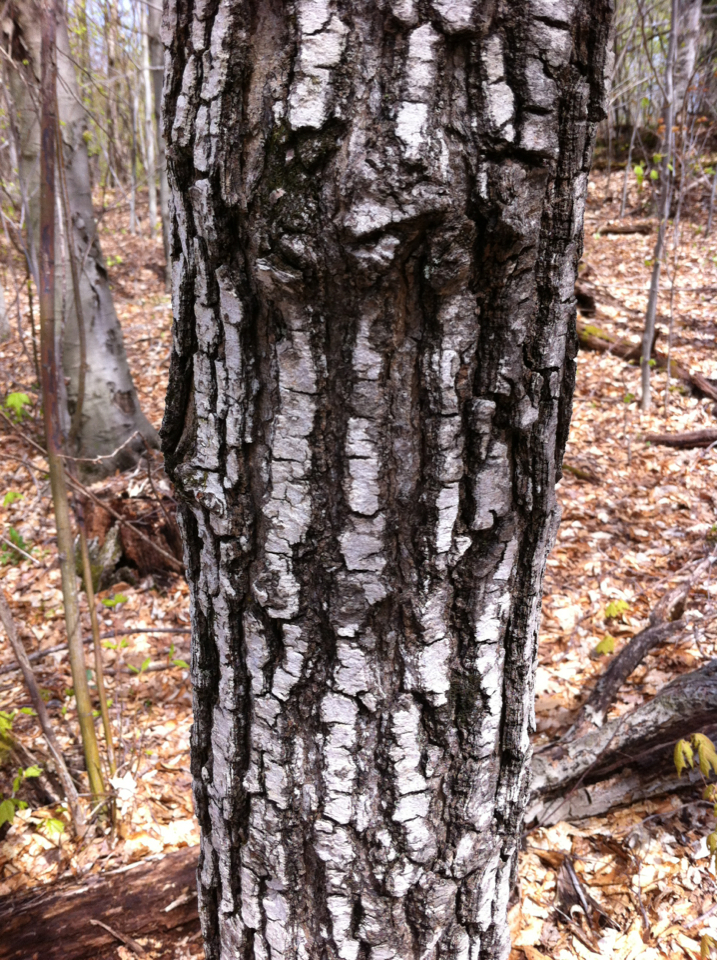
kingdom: Plantae
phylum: Tracheophyta
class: Magnoliopsida
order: Fagales
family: Juglandaceae
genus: Juglans
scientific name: Juglans cinerea
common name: Butternut
